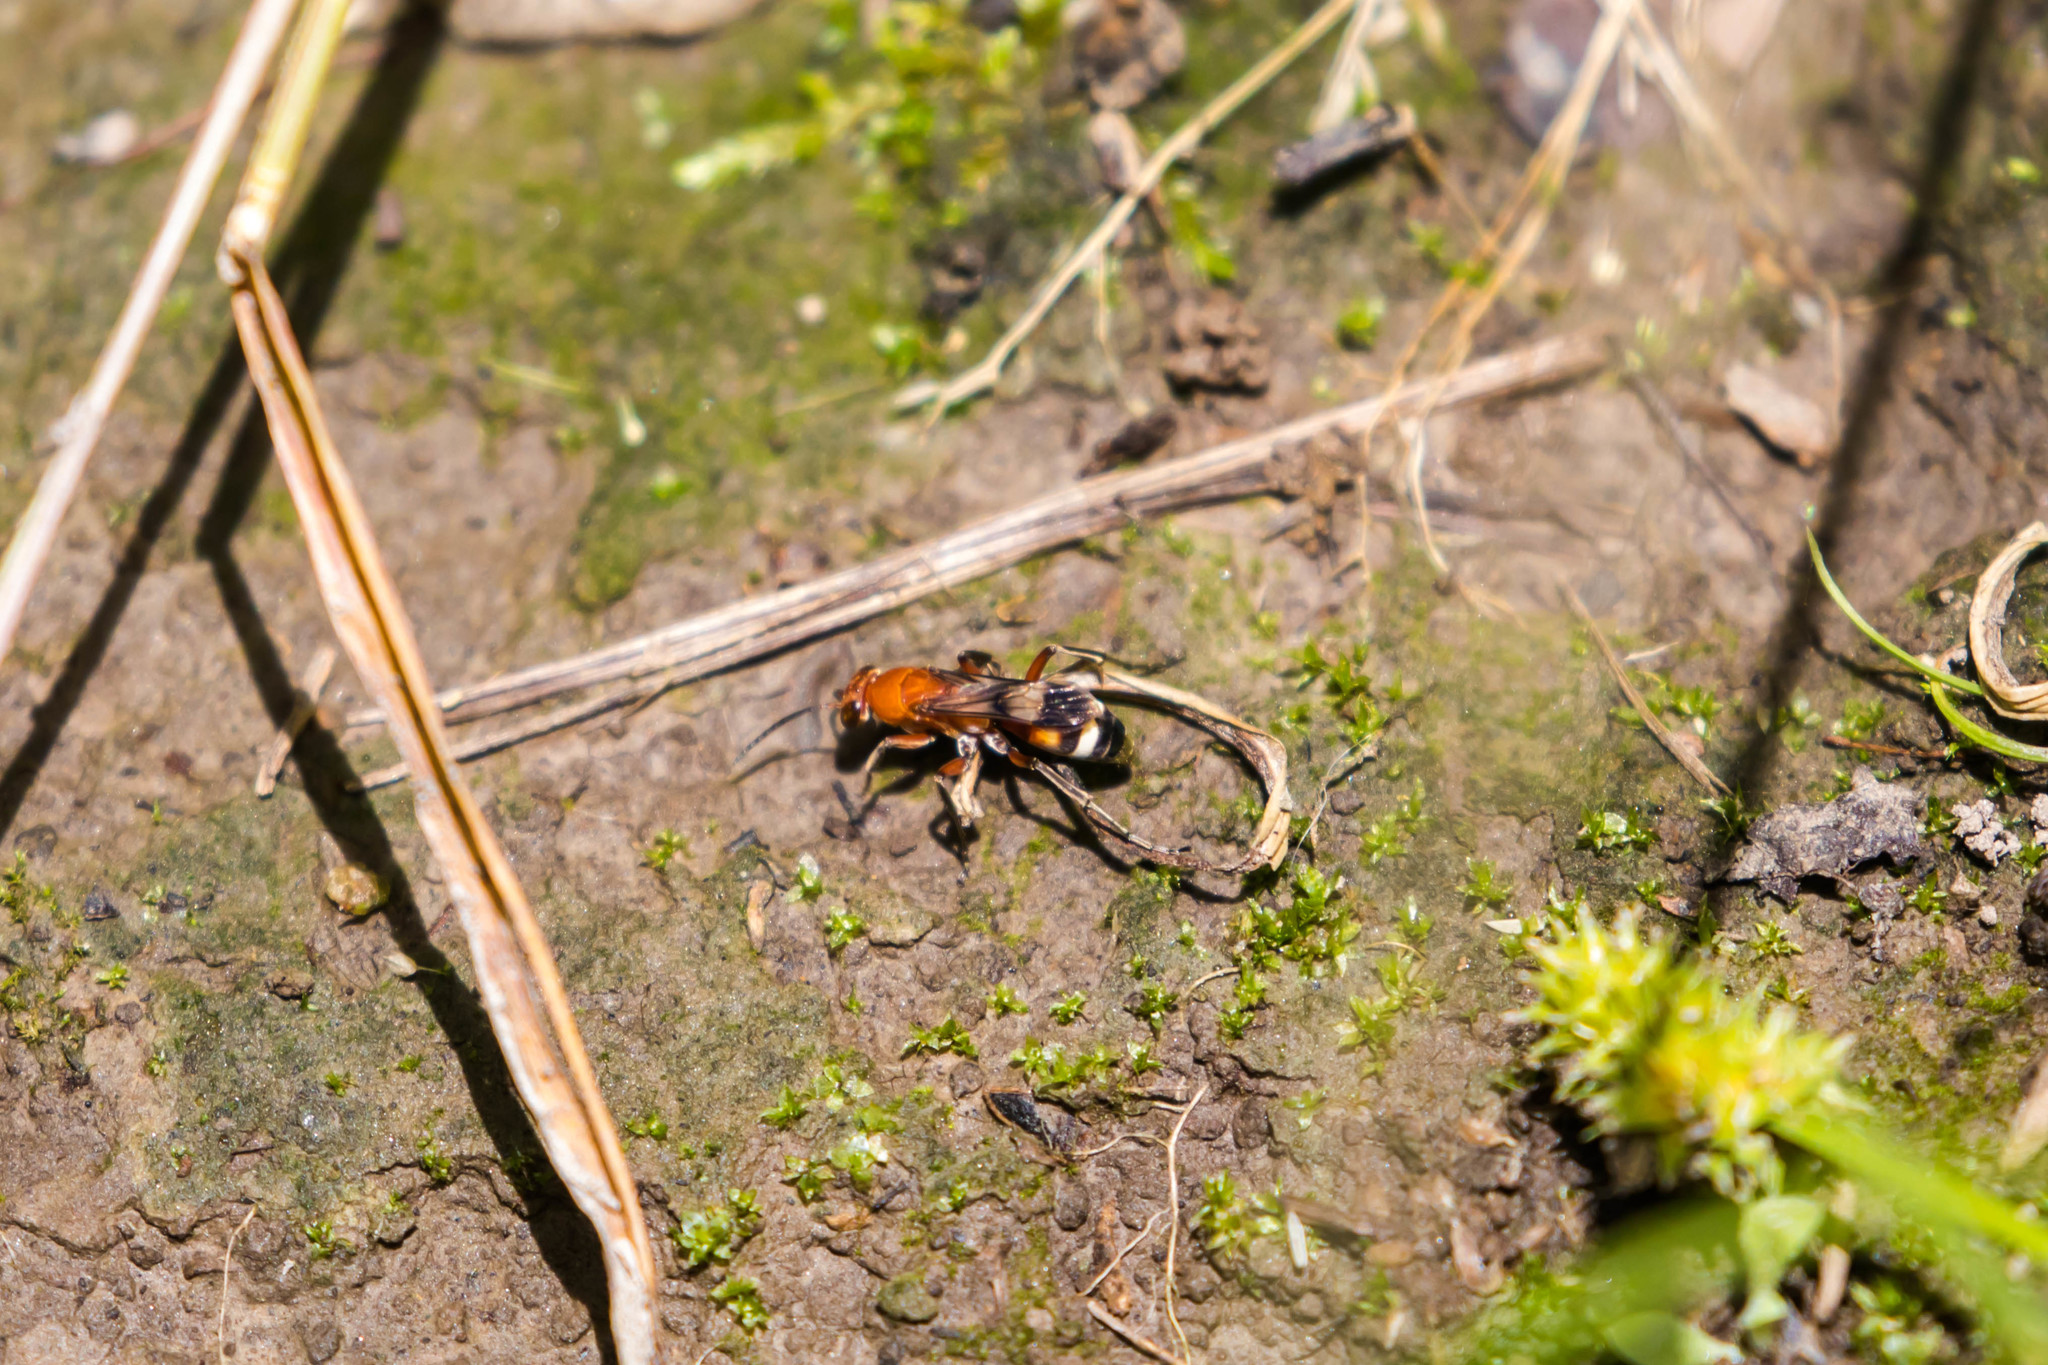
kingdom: Animalia
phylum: Arthropoda
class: Insecta
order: Hymenoptera
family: Pompilidae
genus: Psorthaspis
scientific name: Psorthaspis legata
